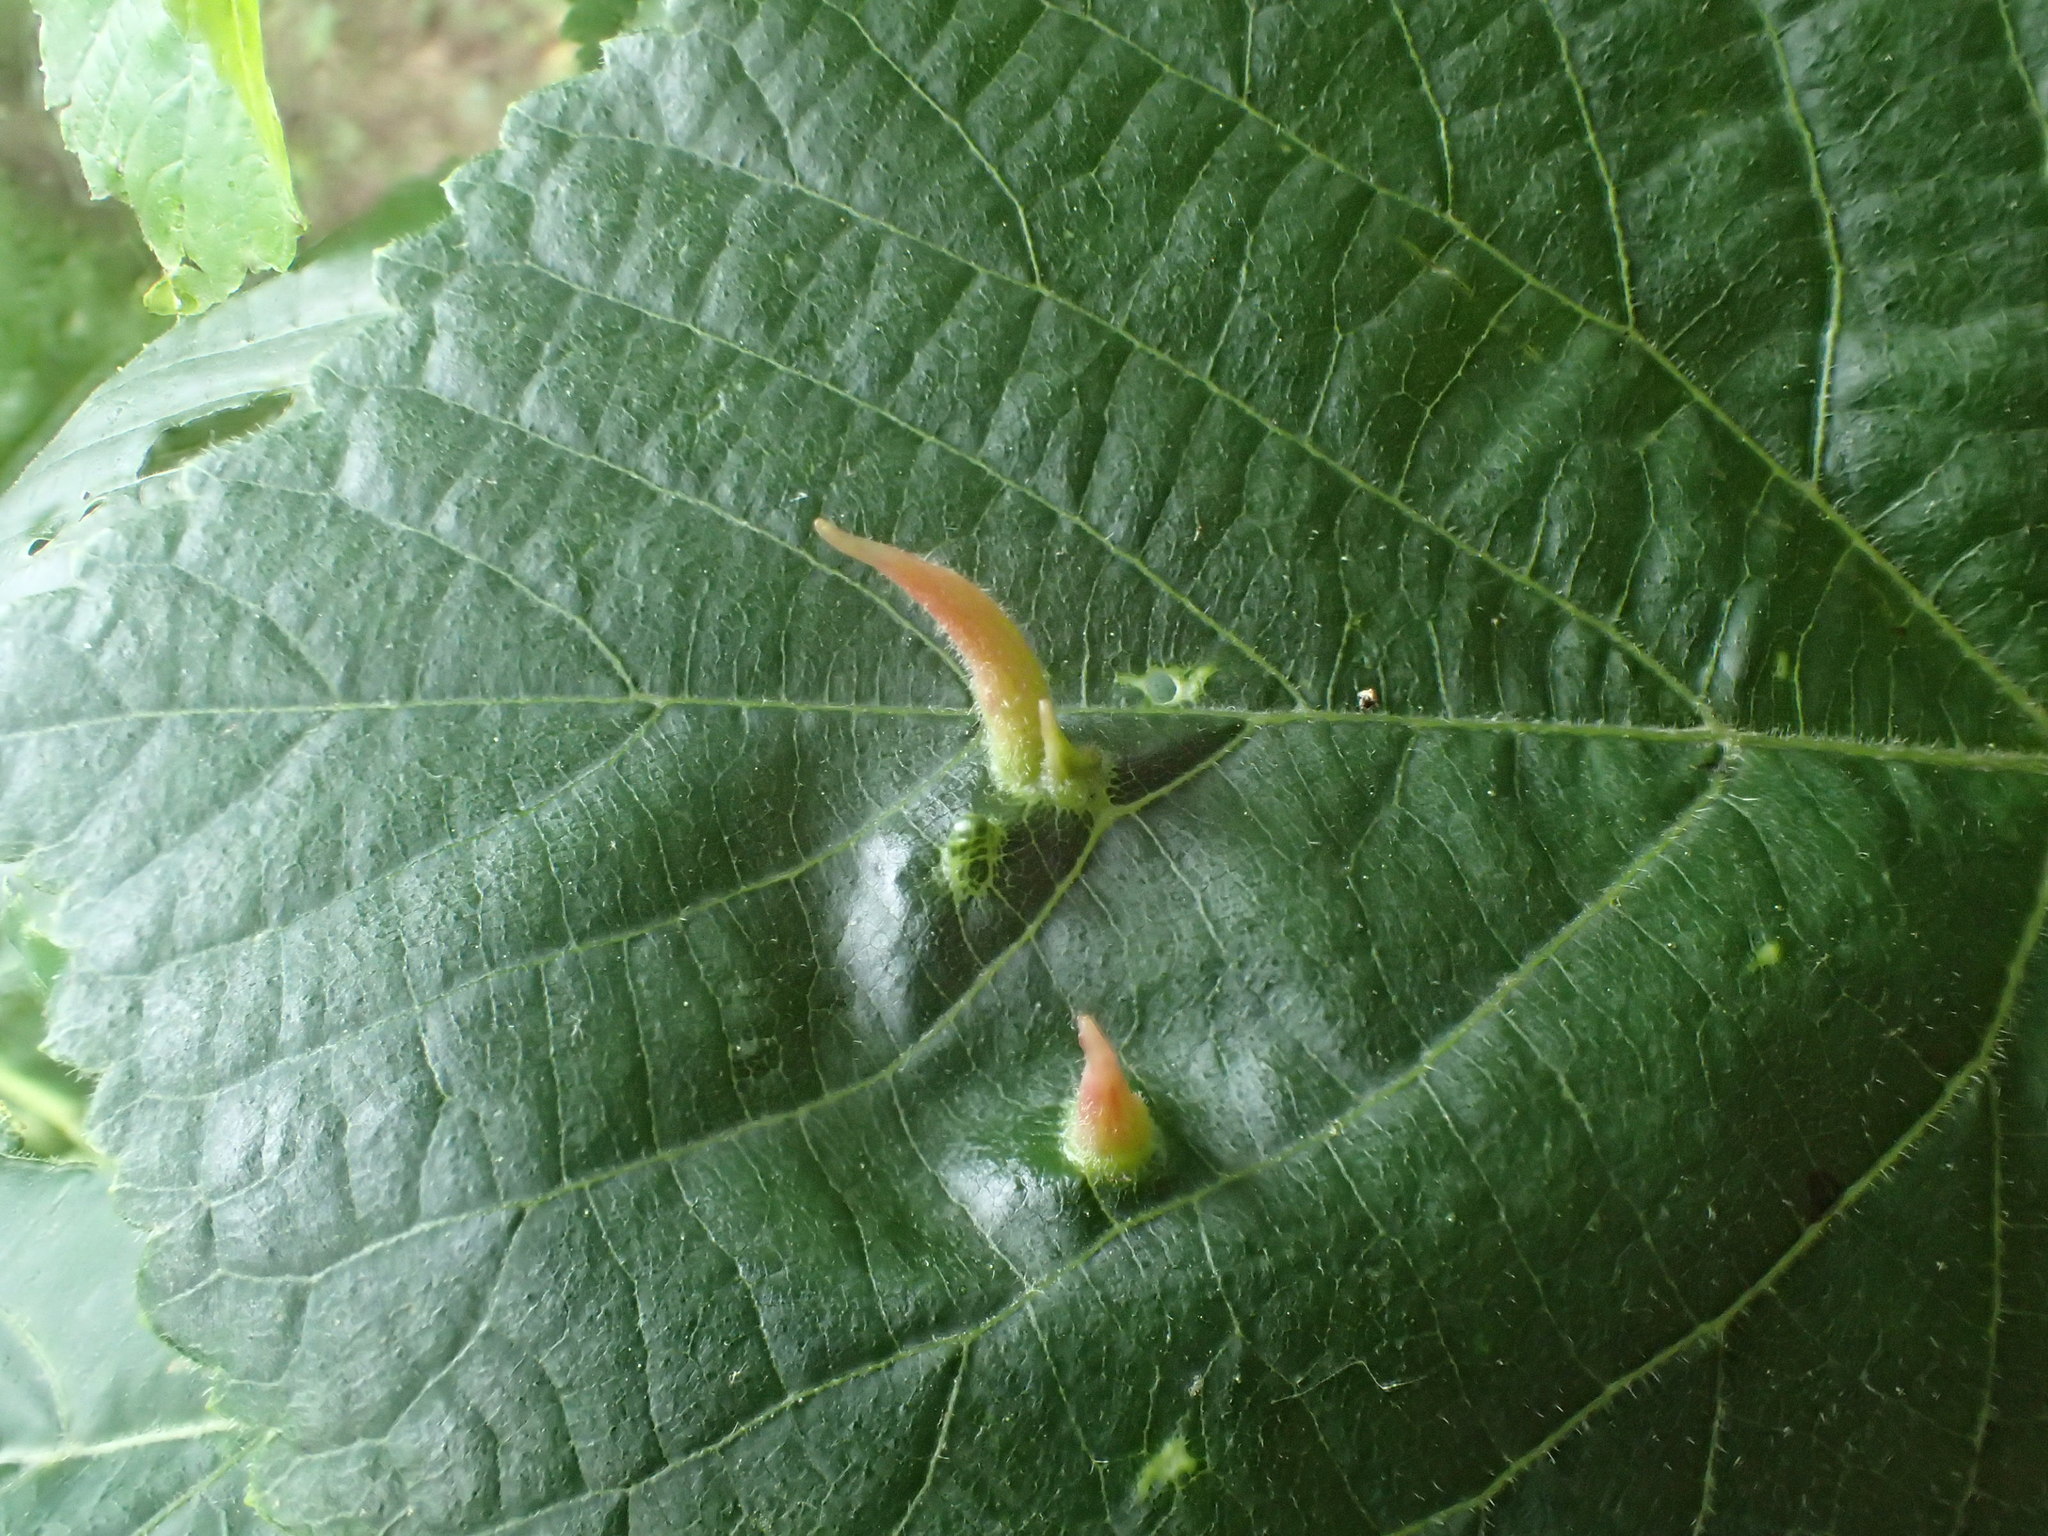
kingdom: Animalia
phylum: Arthropoda
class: Arachnida
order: Trombidiformes
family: Eriophyidae
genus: Eriophyes
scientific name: Eriophyes tiliae
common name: Red nail gall mite
